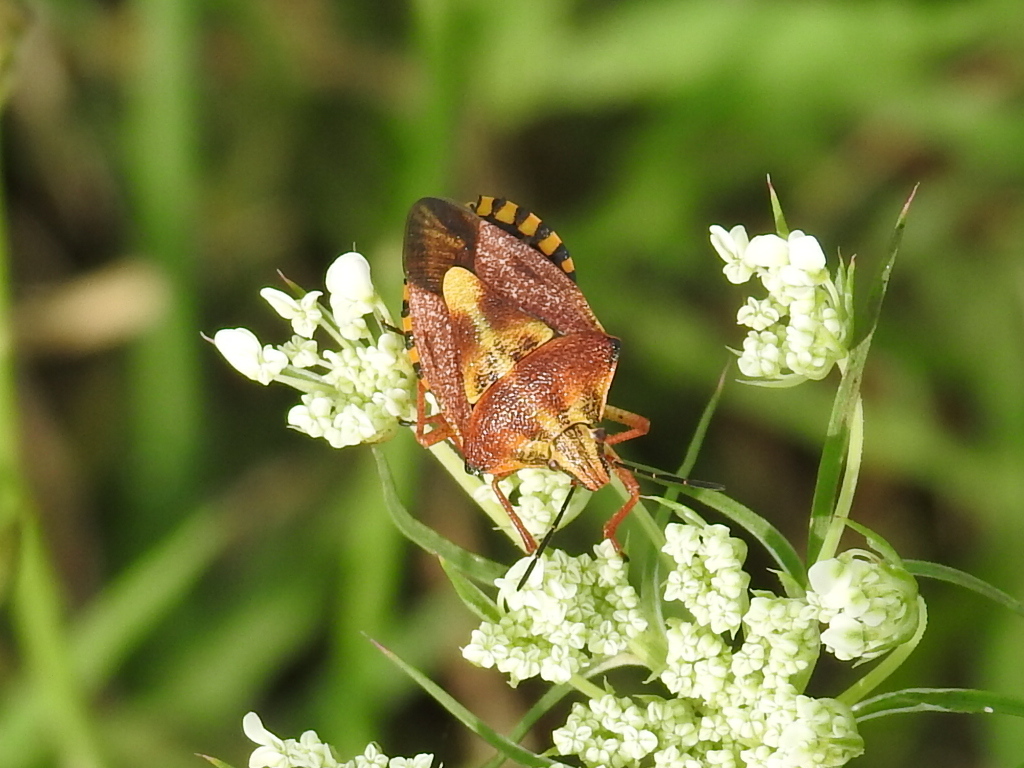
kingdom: Animalia
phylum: Arthropoda
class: Insecta
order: Hemiptera
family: Pentatomidae
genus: Carpocoris
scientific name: Carpocoris purpureipennis
